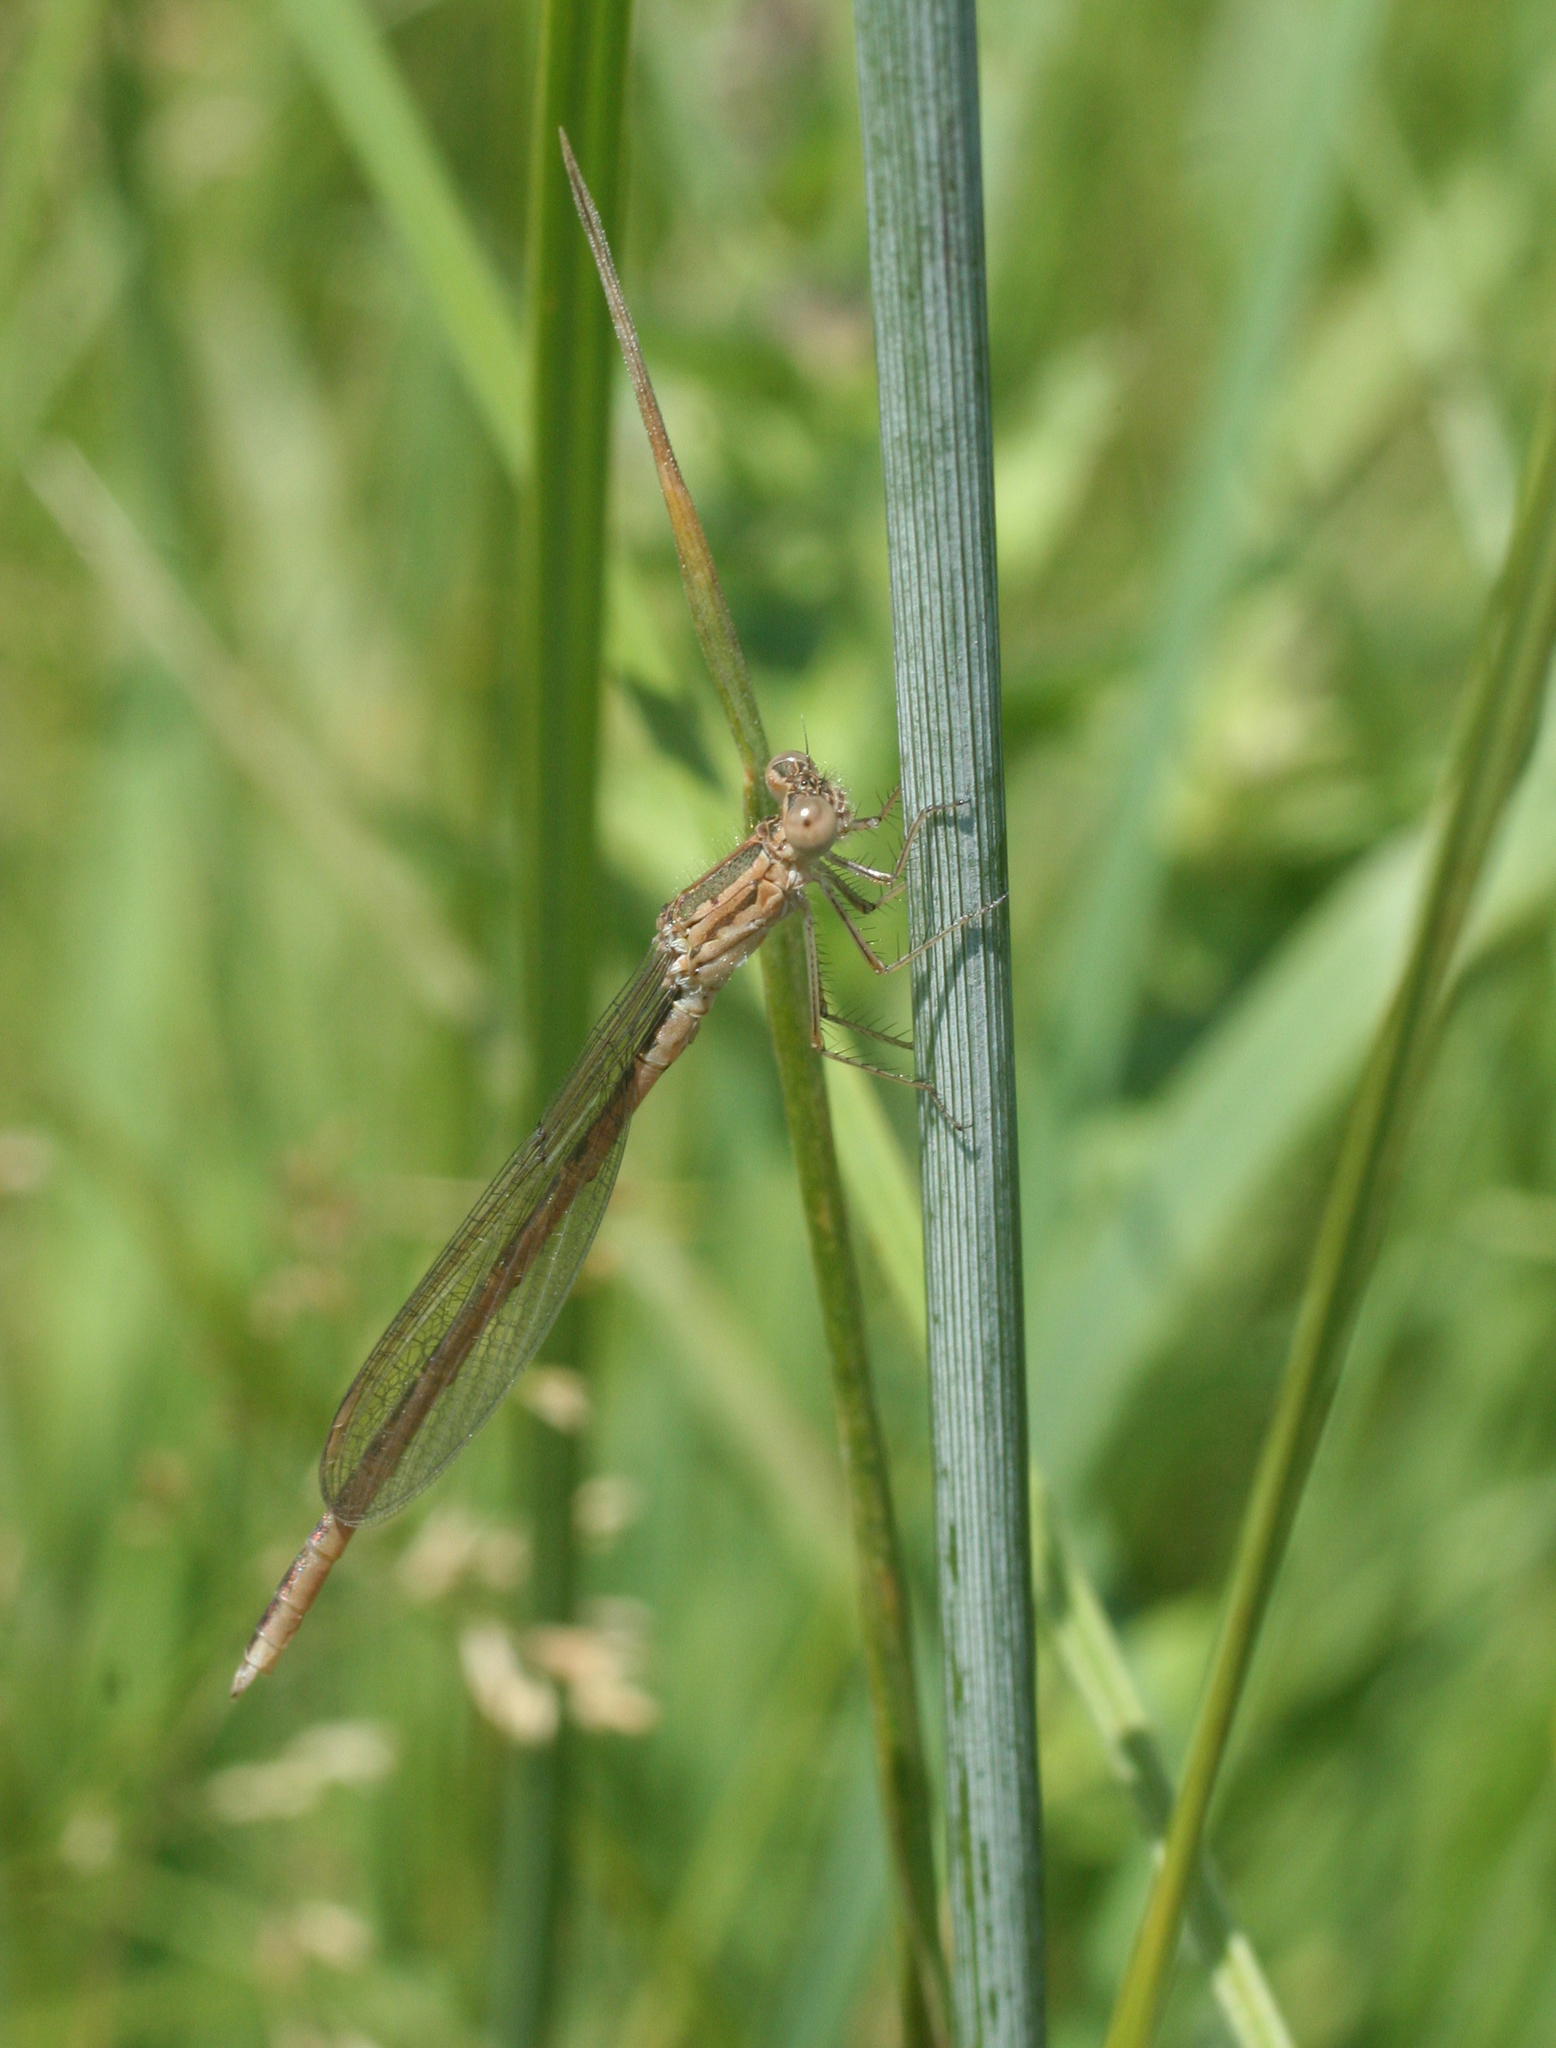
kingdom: Animalia
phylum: Arthropoda
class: Insecta
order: Odonata
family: Lestidae
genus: Sympecma
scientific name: Sympecma paedisca
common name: Siberian winter damsel
